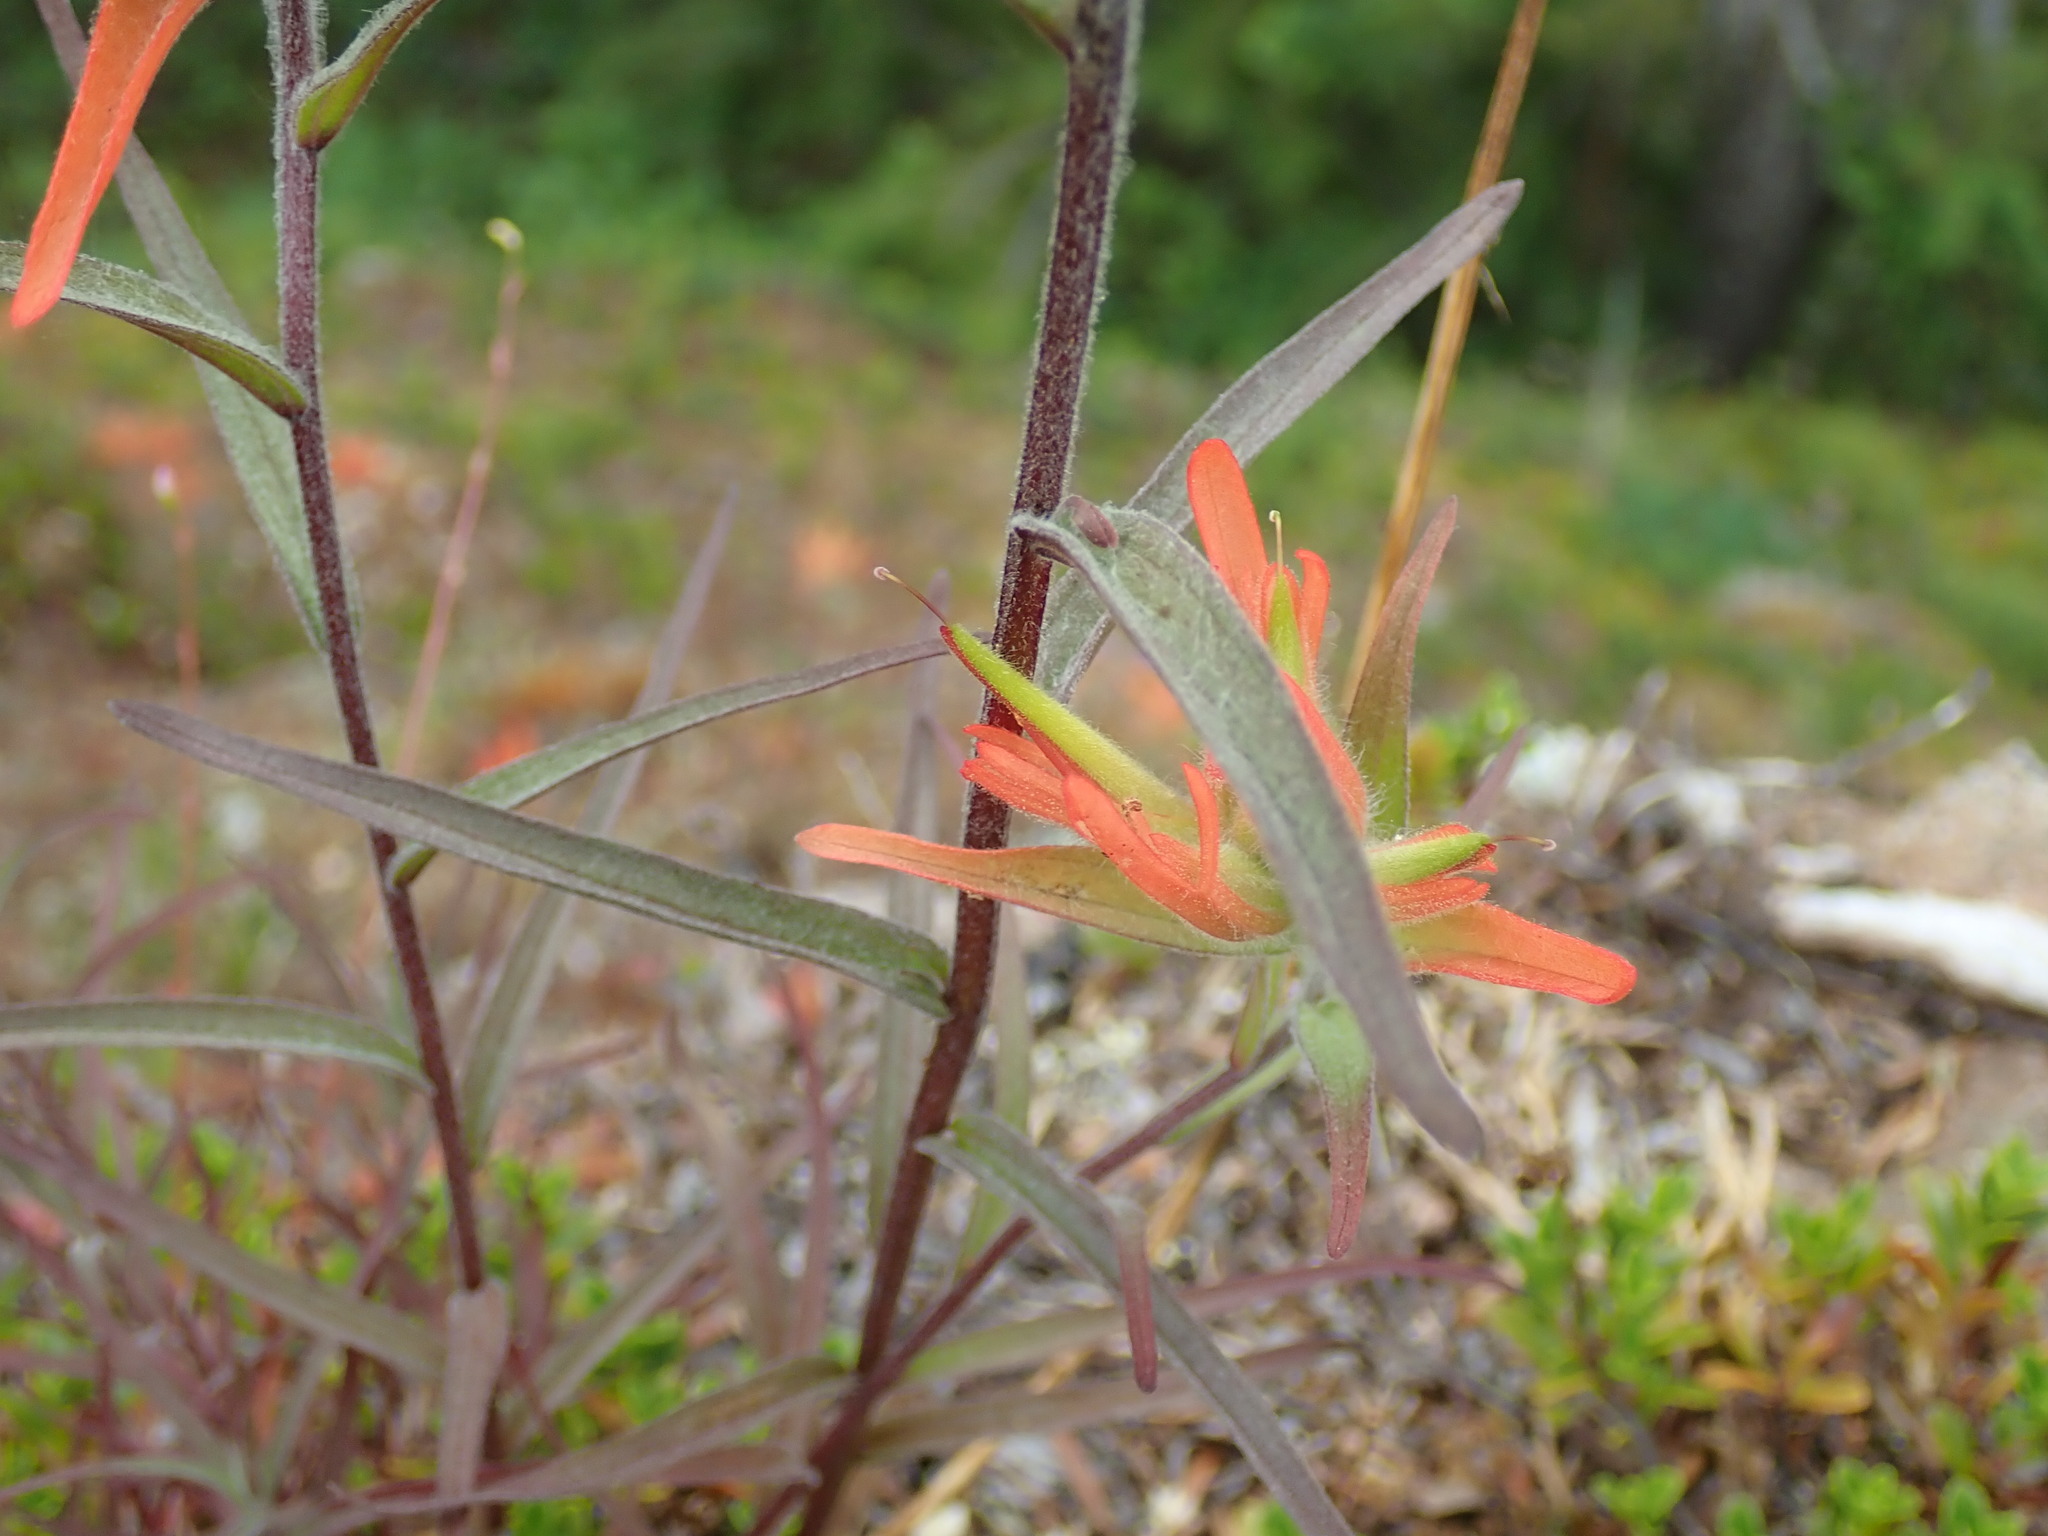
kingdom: Plantae
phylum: Tracheophyta
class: Magnoliopsida
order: Lamiales
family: Orobanchaceae
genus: Castilleja
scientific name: Castilleja miniata
